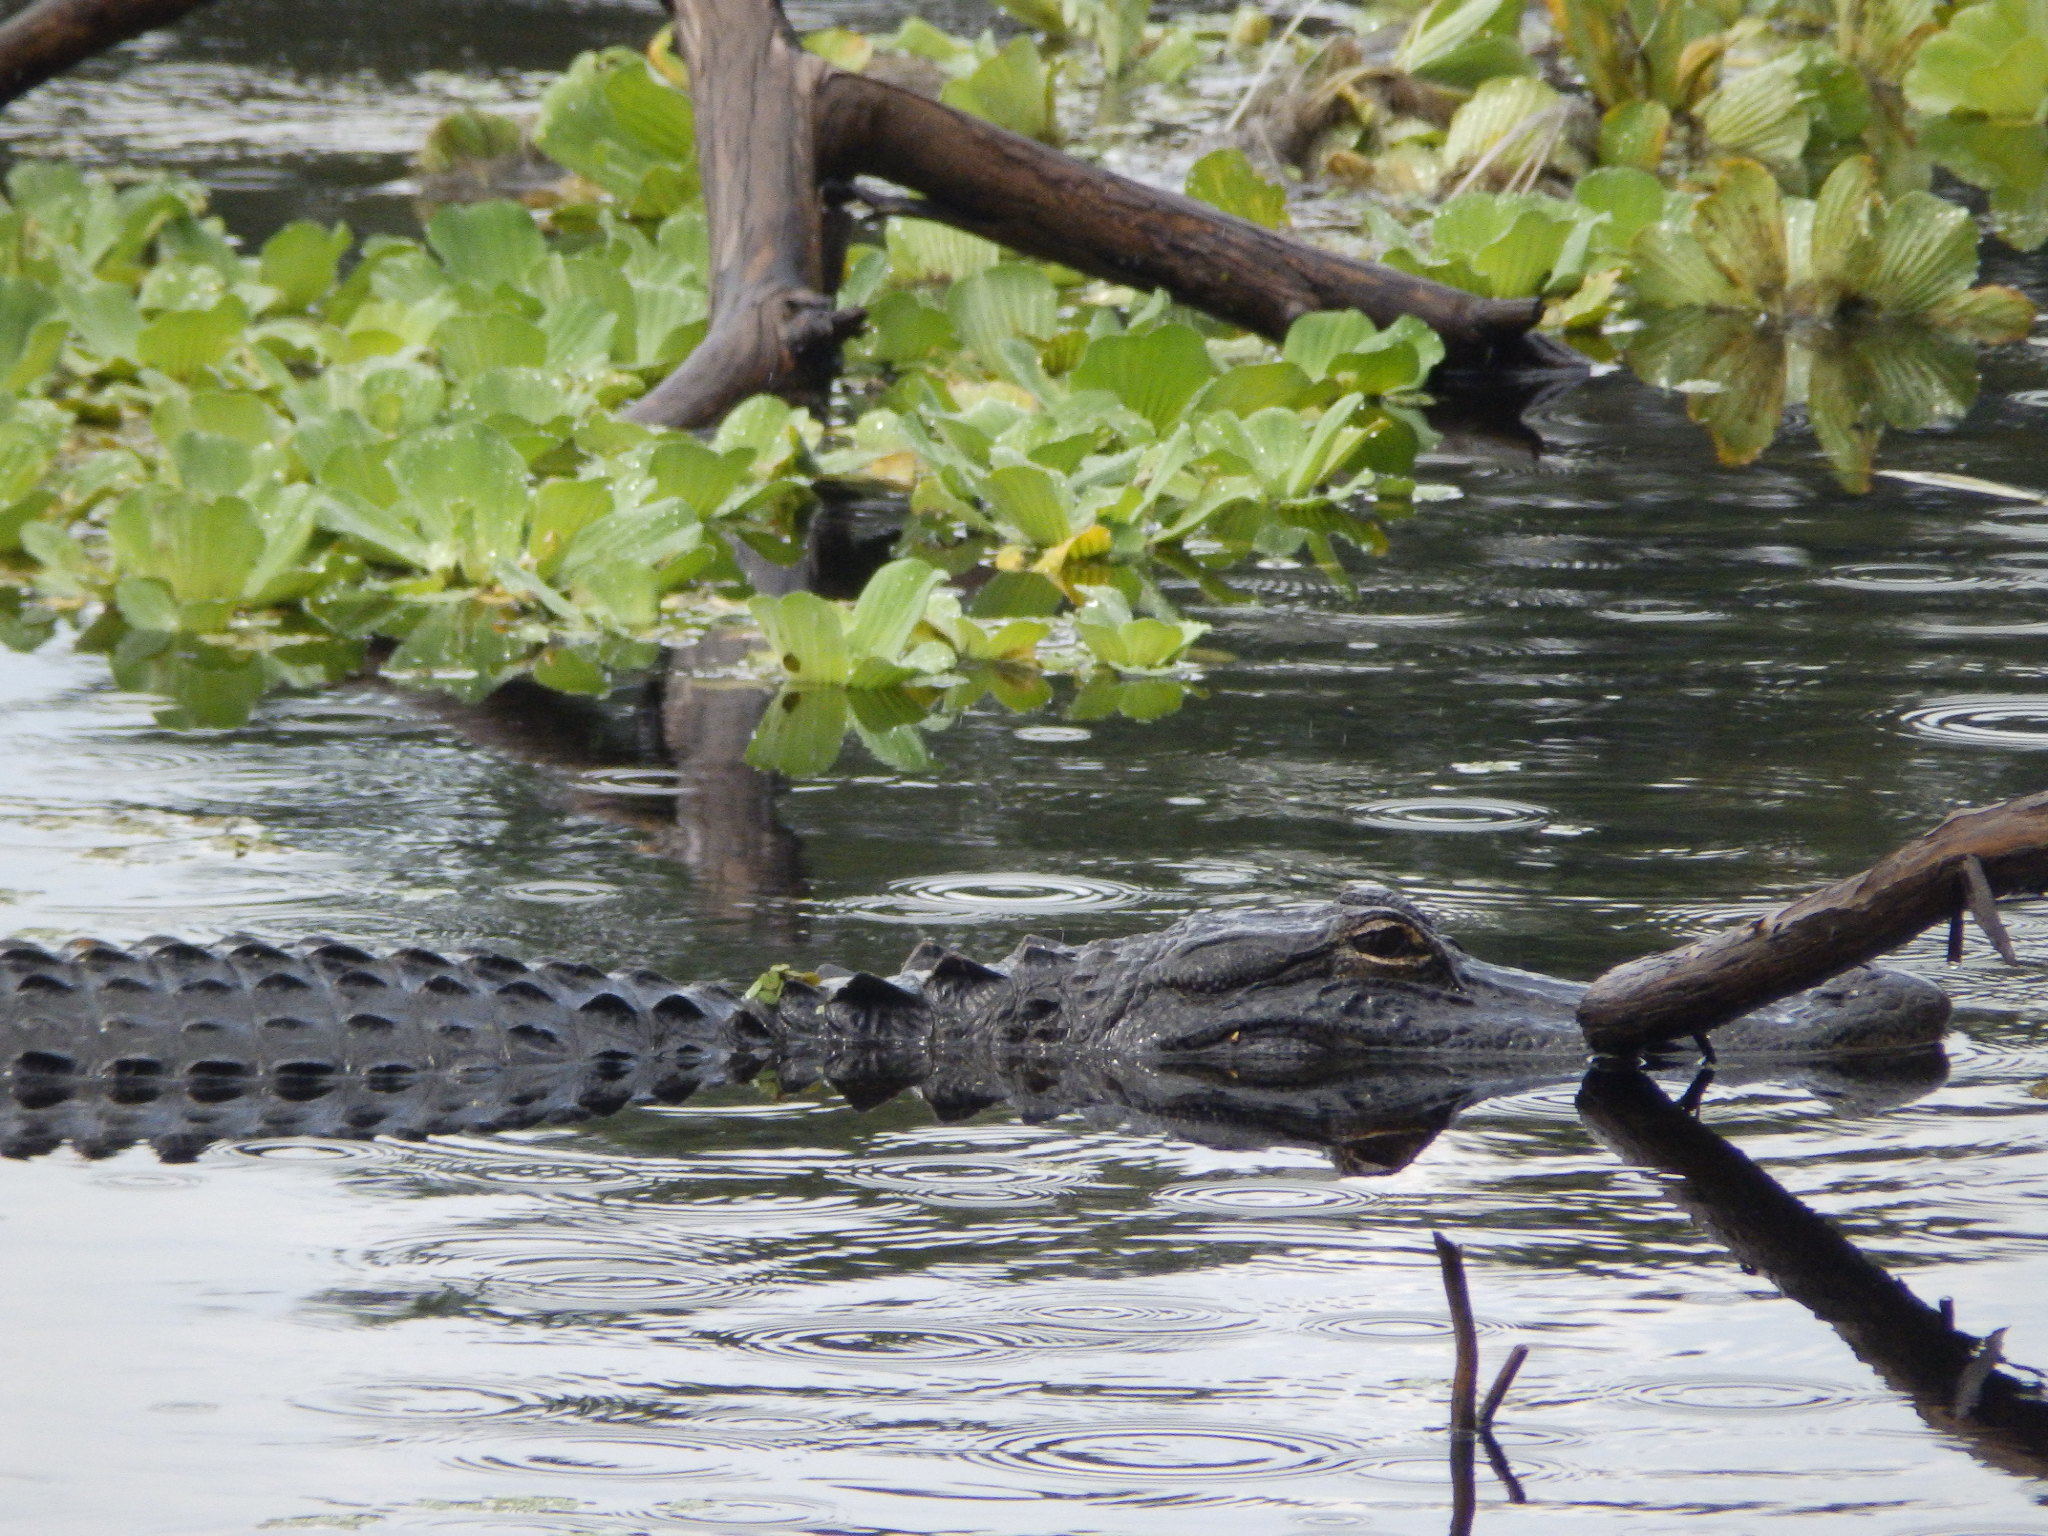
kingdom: Animalia
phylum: Chordata
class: Crocodylia
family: Alligatoridae
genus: Alligator
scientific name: Alligator mississippiensis
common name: American alligator
